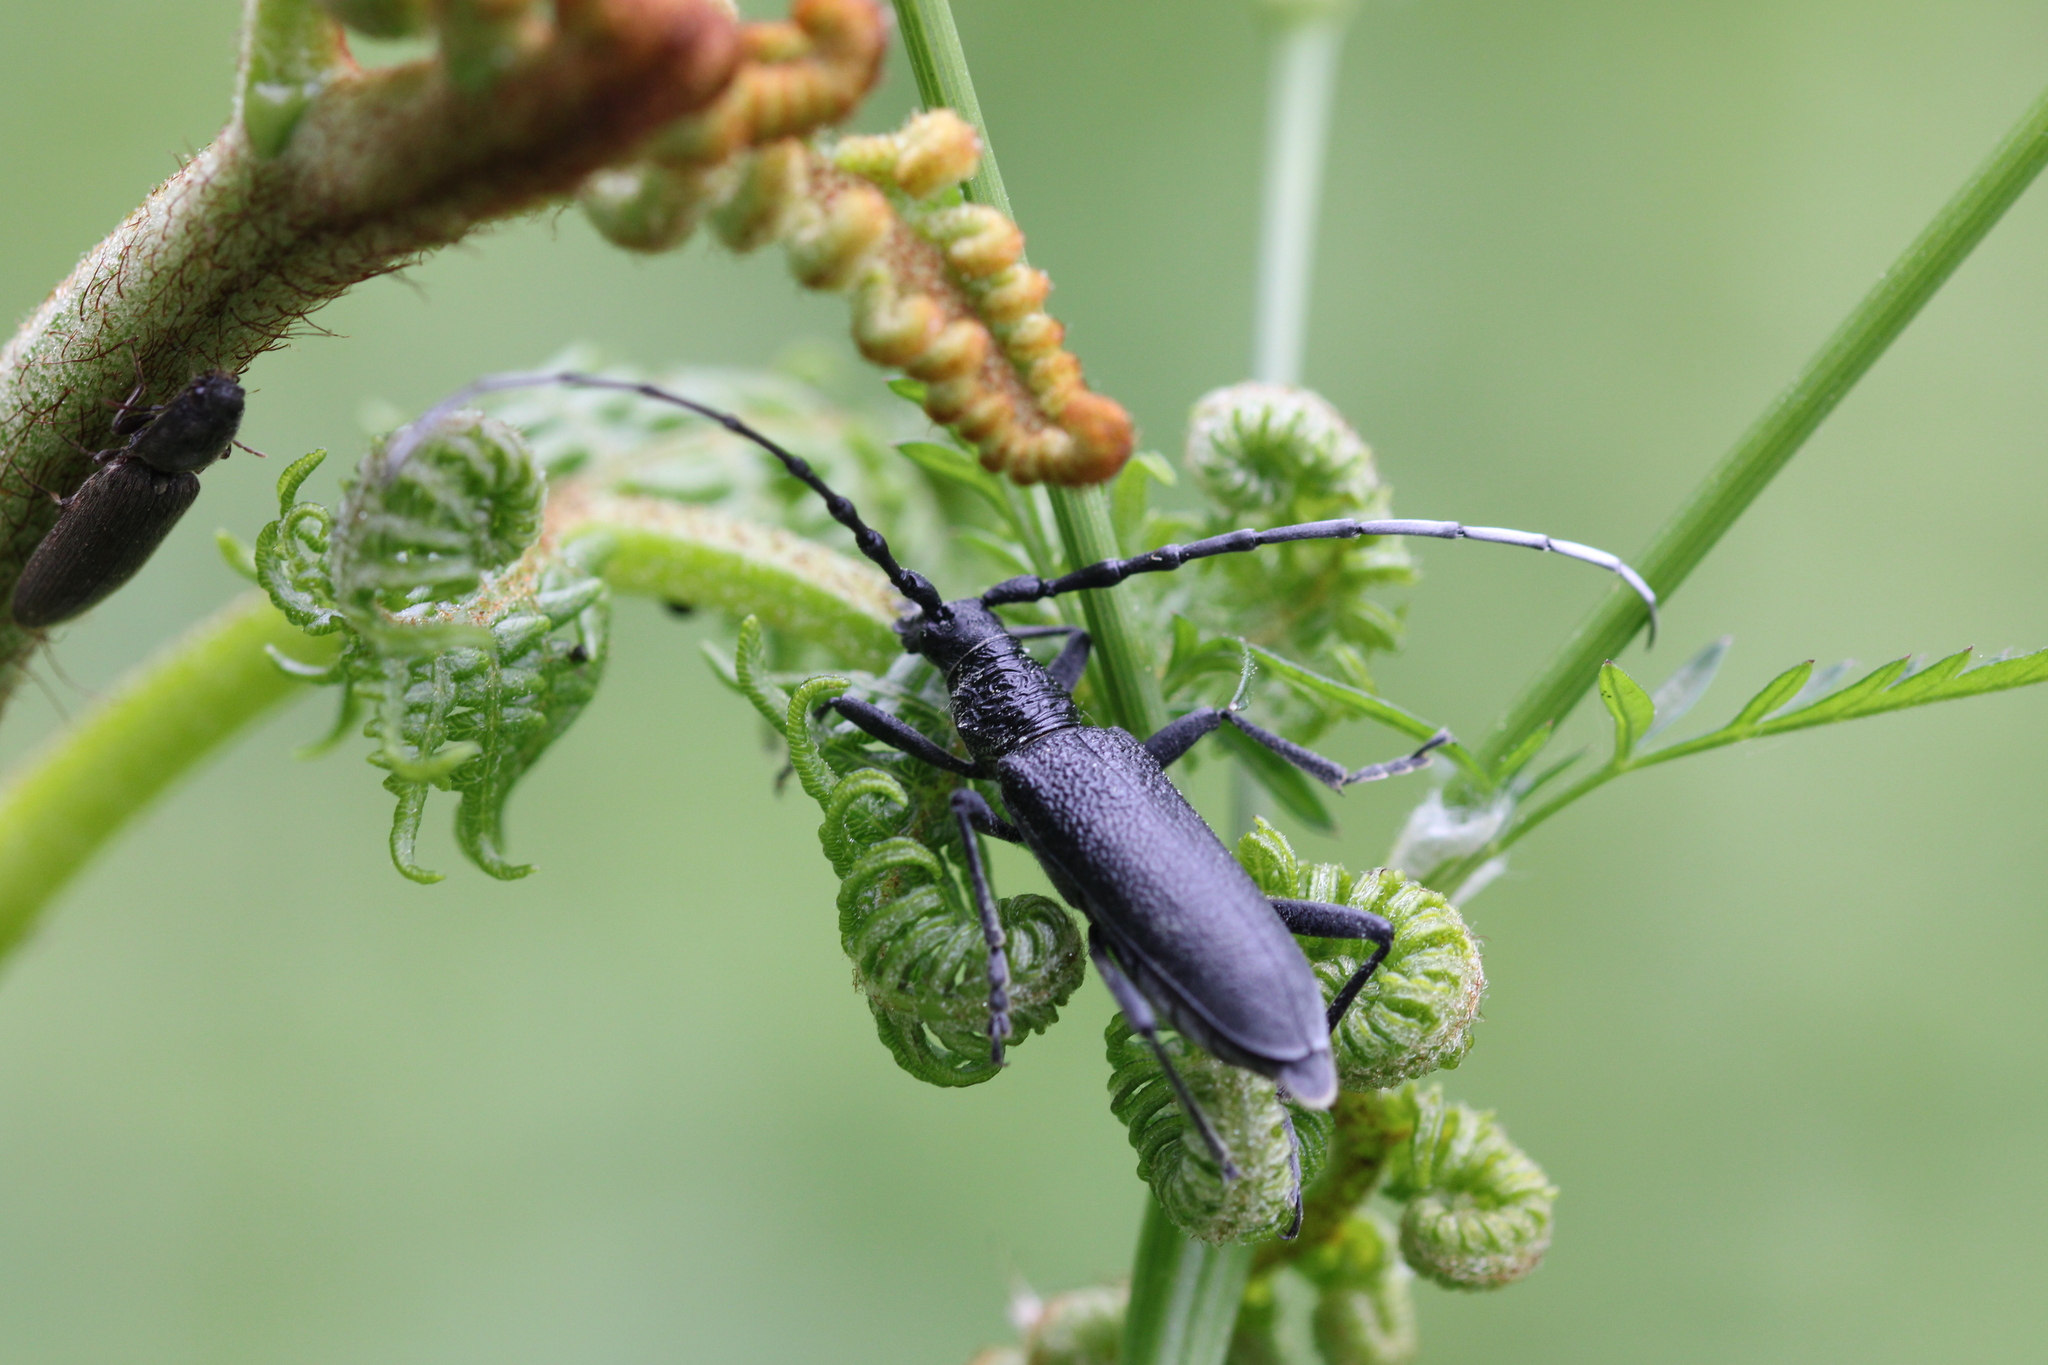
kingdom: Animalia
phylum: Arthropoda
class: Insecta
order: Coleoptera
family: Cerambycidae
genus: Cerambyx
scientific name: Cerambyx scopolii
